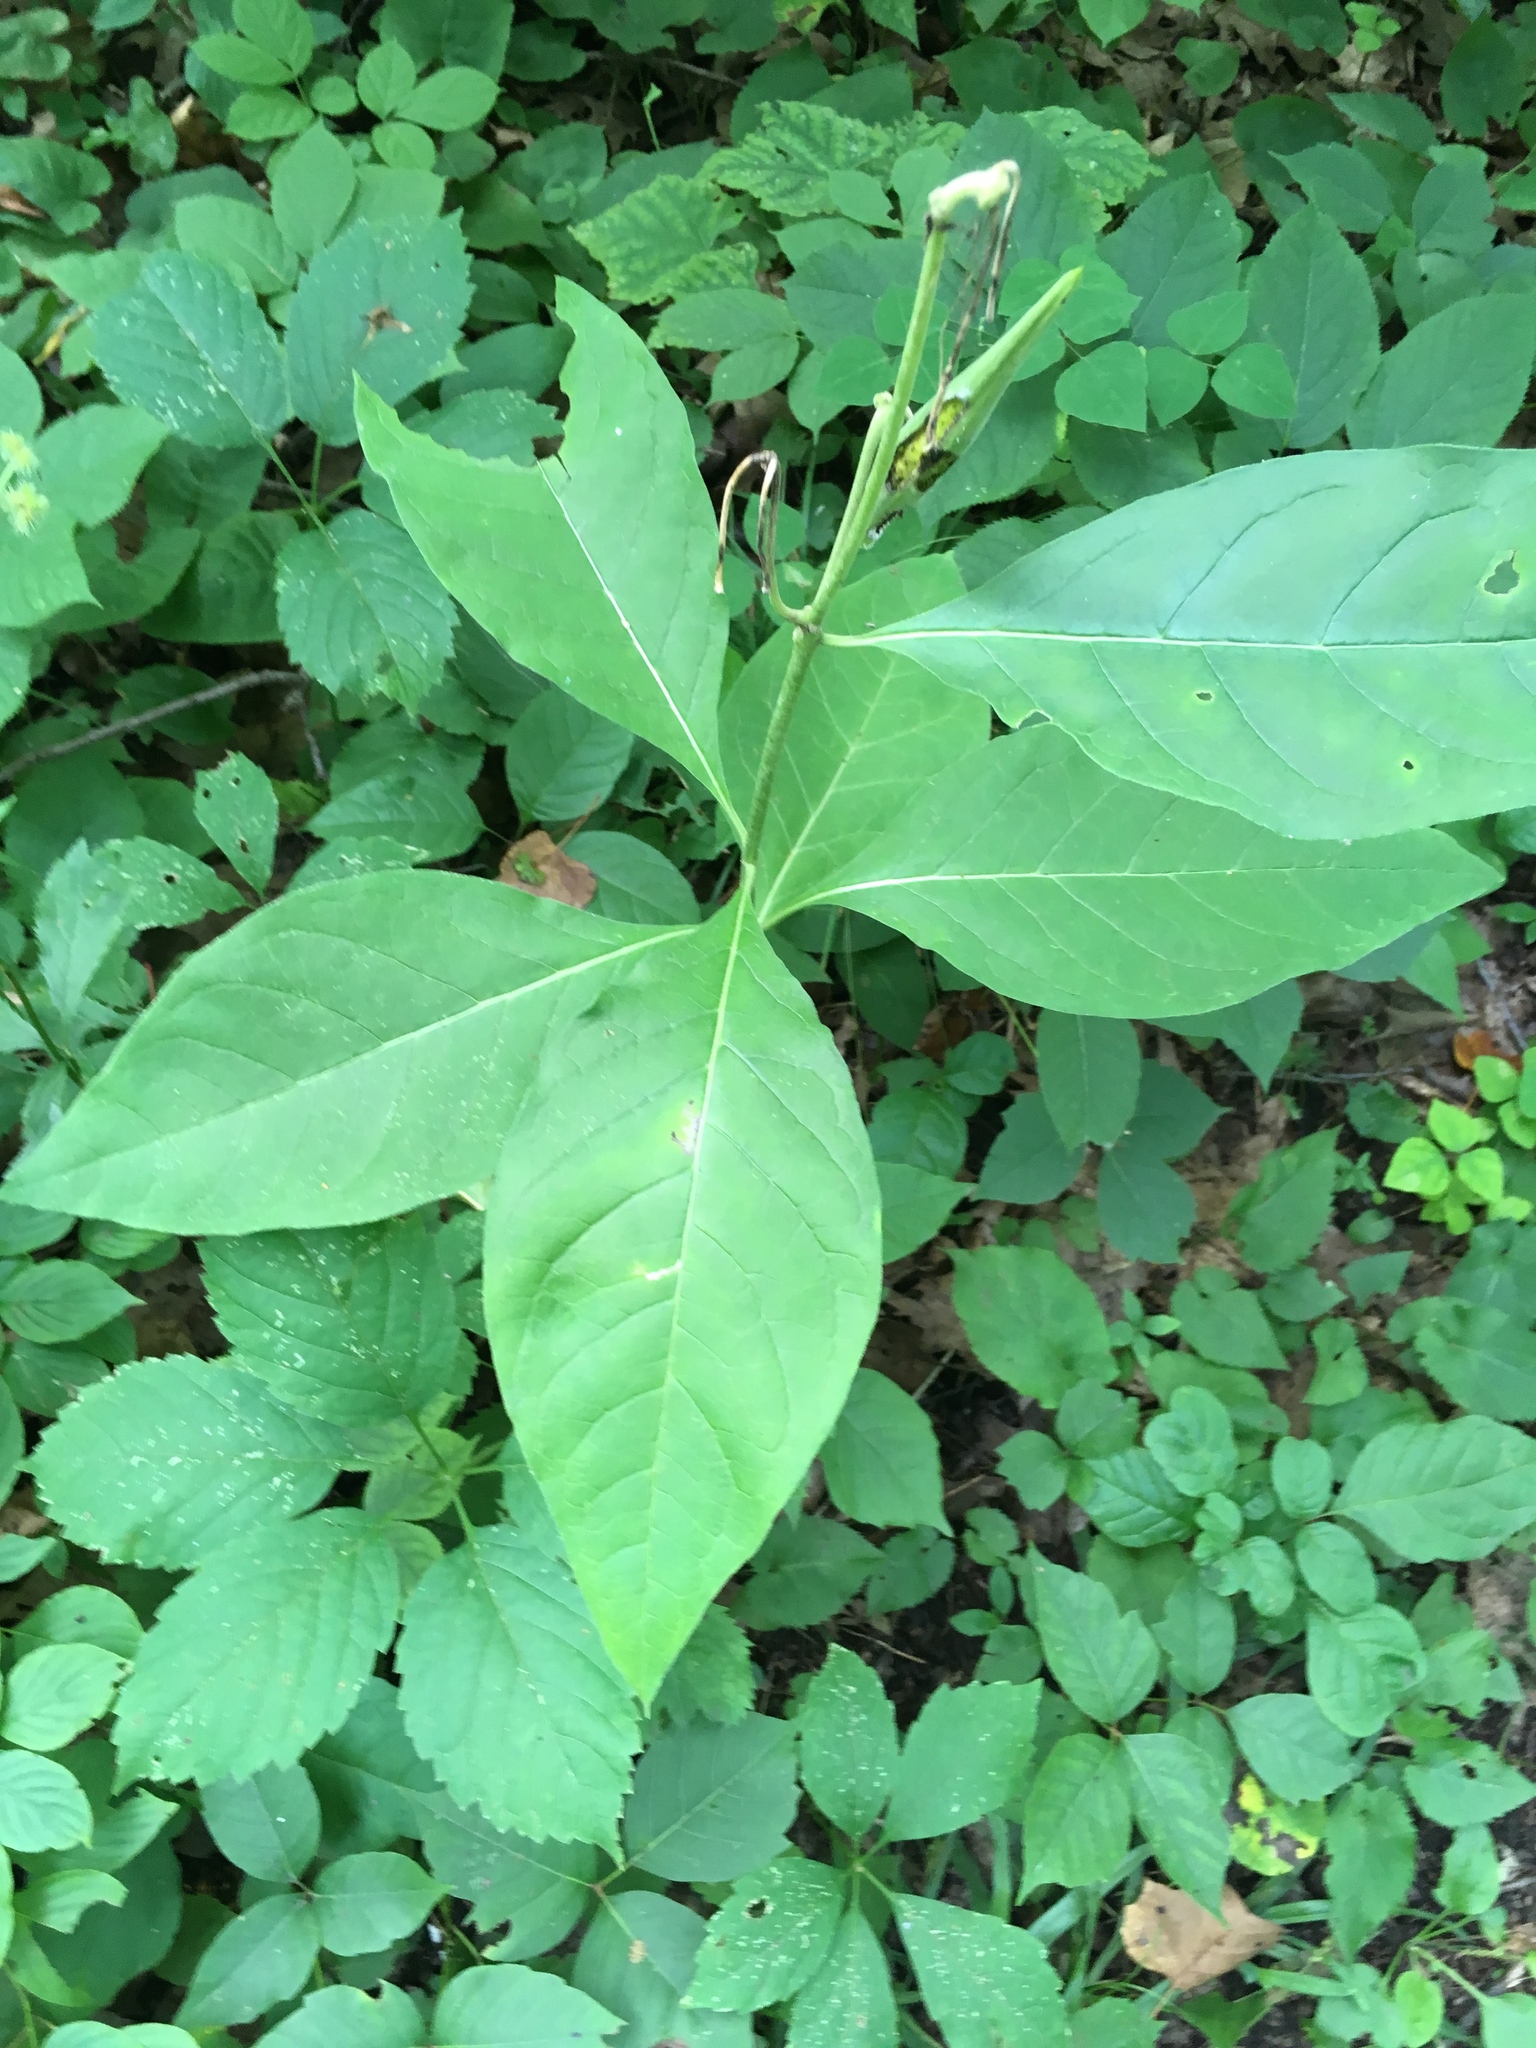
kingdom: Plantae
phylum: Tracheophyta
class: Magnoliopsida
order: Gentianales
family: Apocynaceae
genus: Asclepias
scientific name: Asclepias exaltata
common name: Poke milkweed
